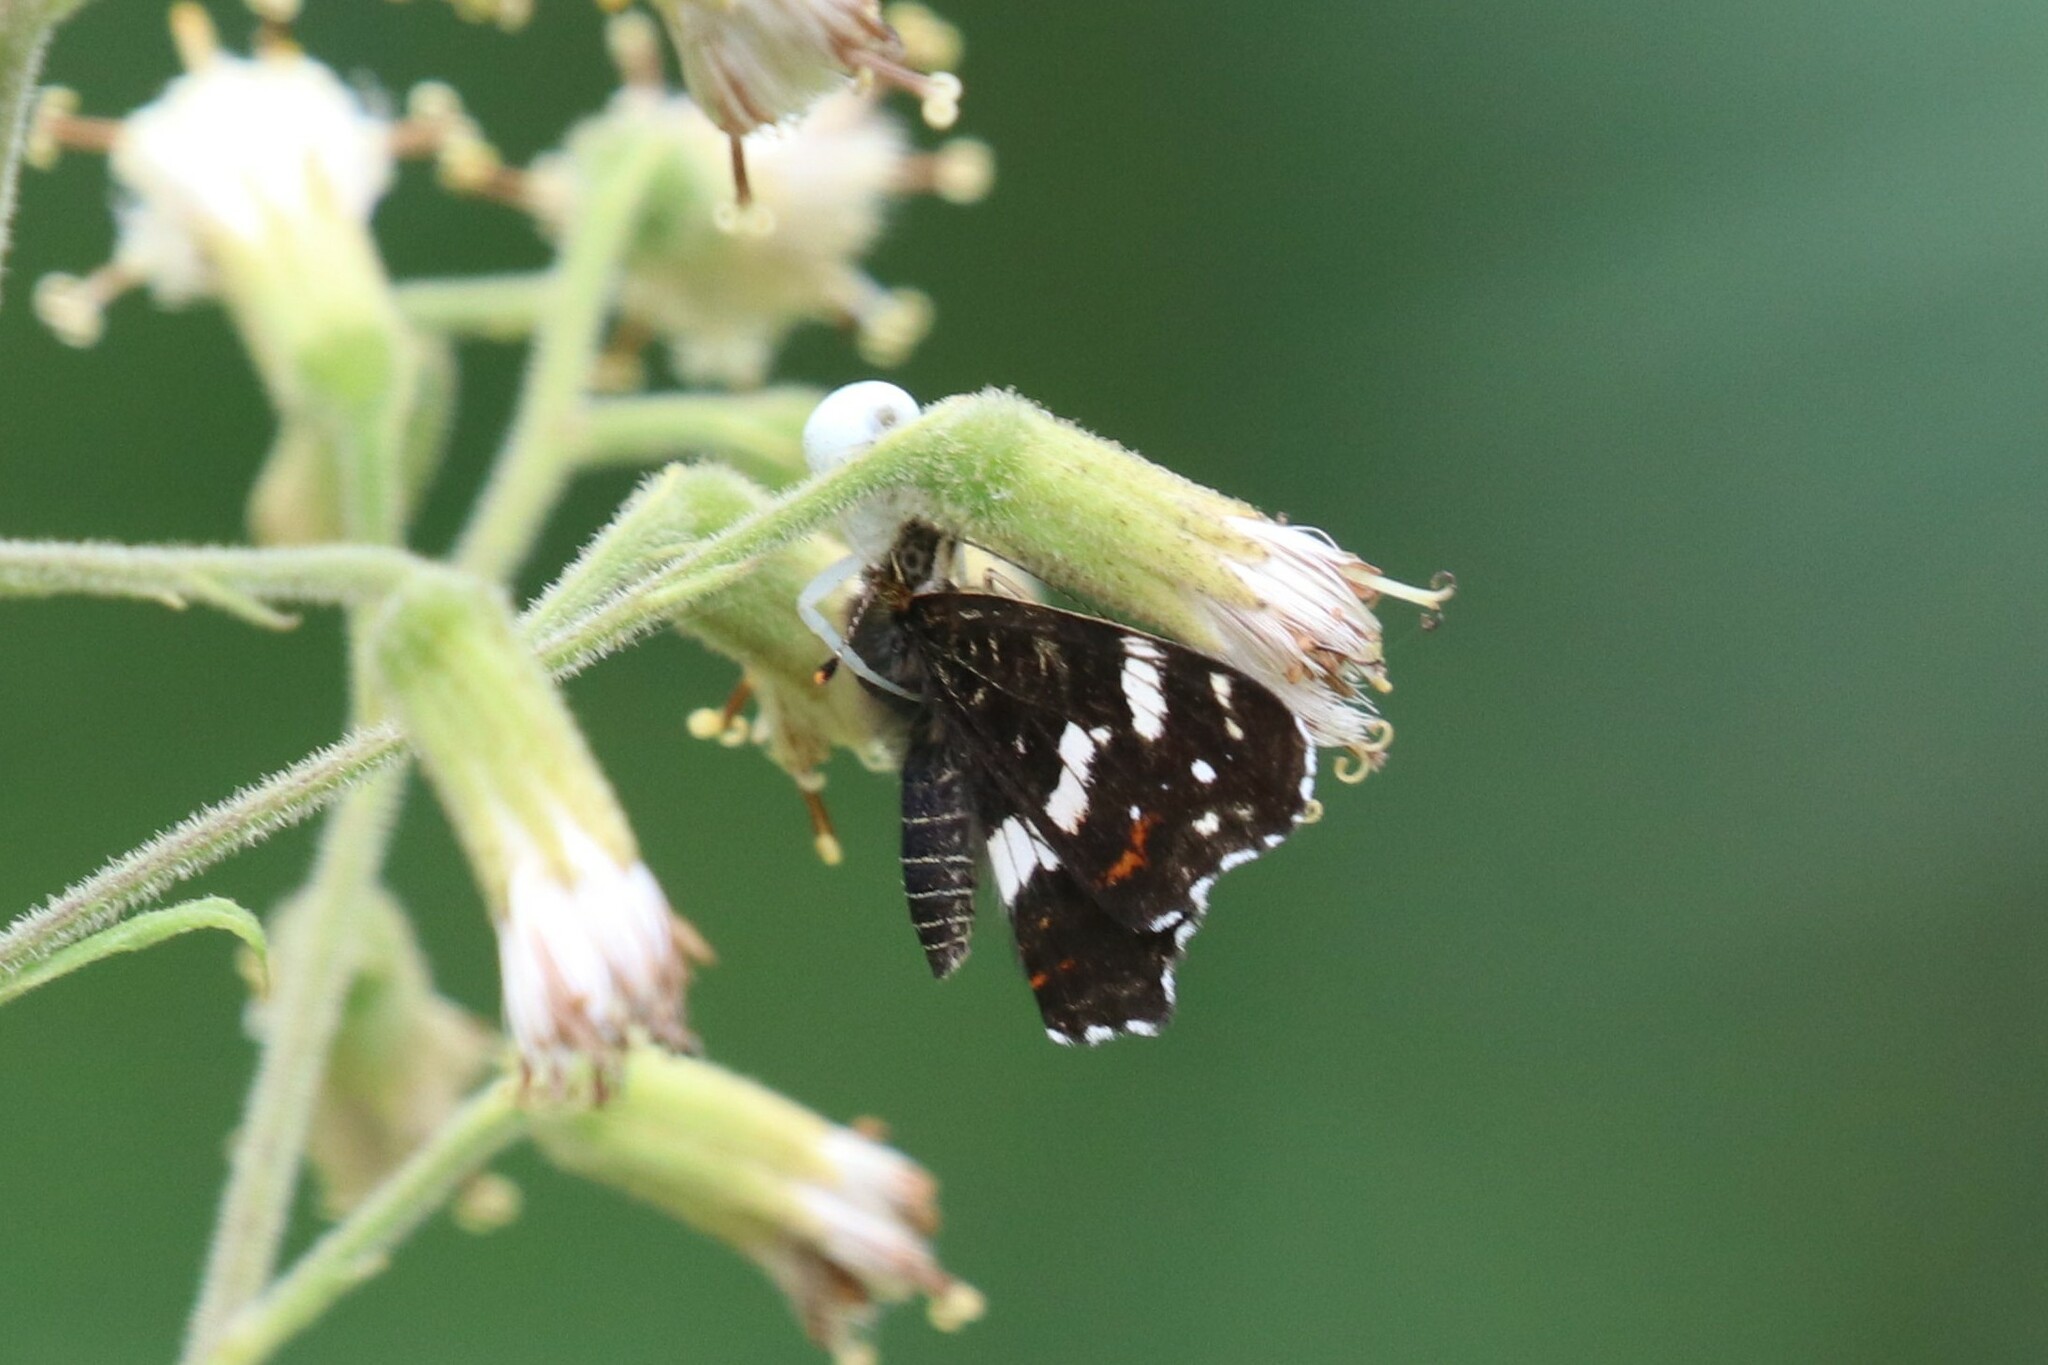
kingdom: Animalia
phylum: Arthropoda
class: Insecta
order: Lepidoptera
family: Nymphalidae
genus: Araschnia
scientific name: Araschnia levana
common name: Map butterfly
